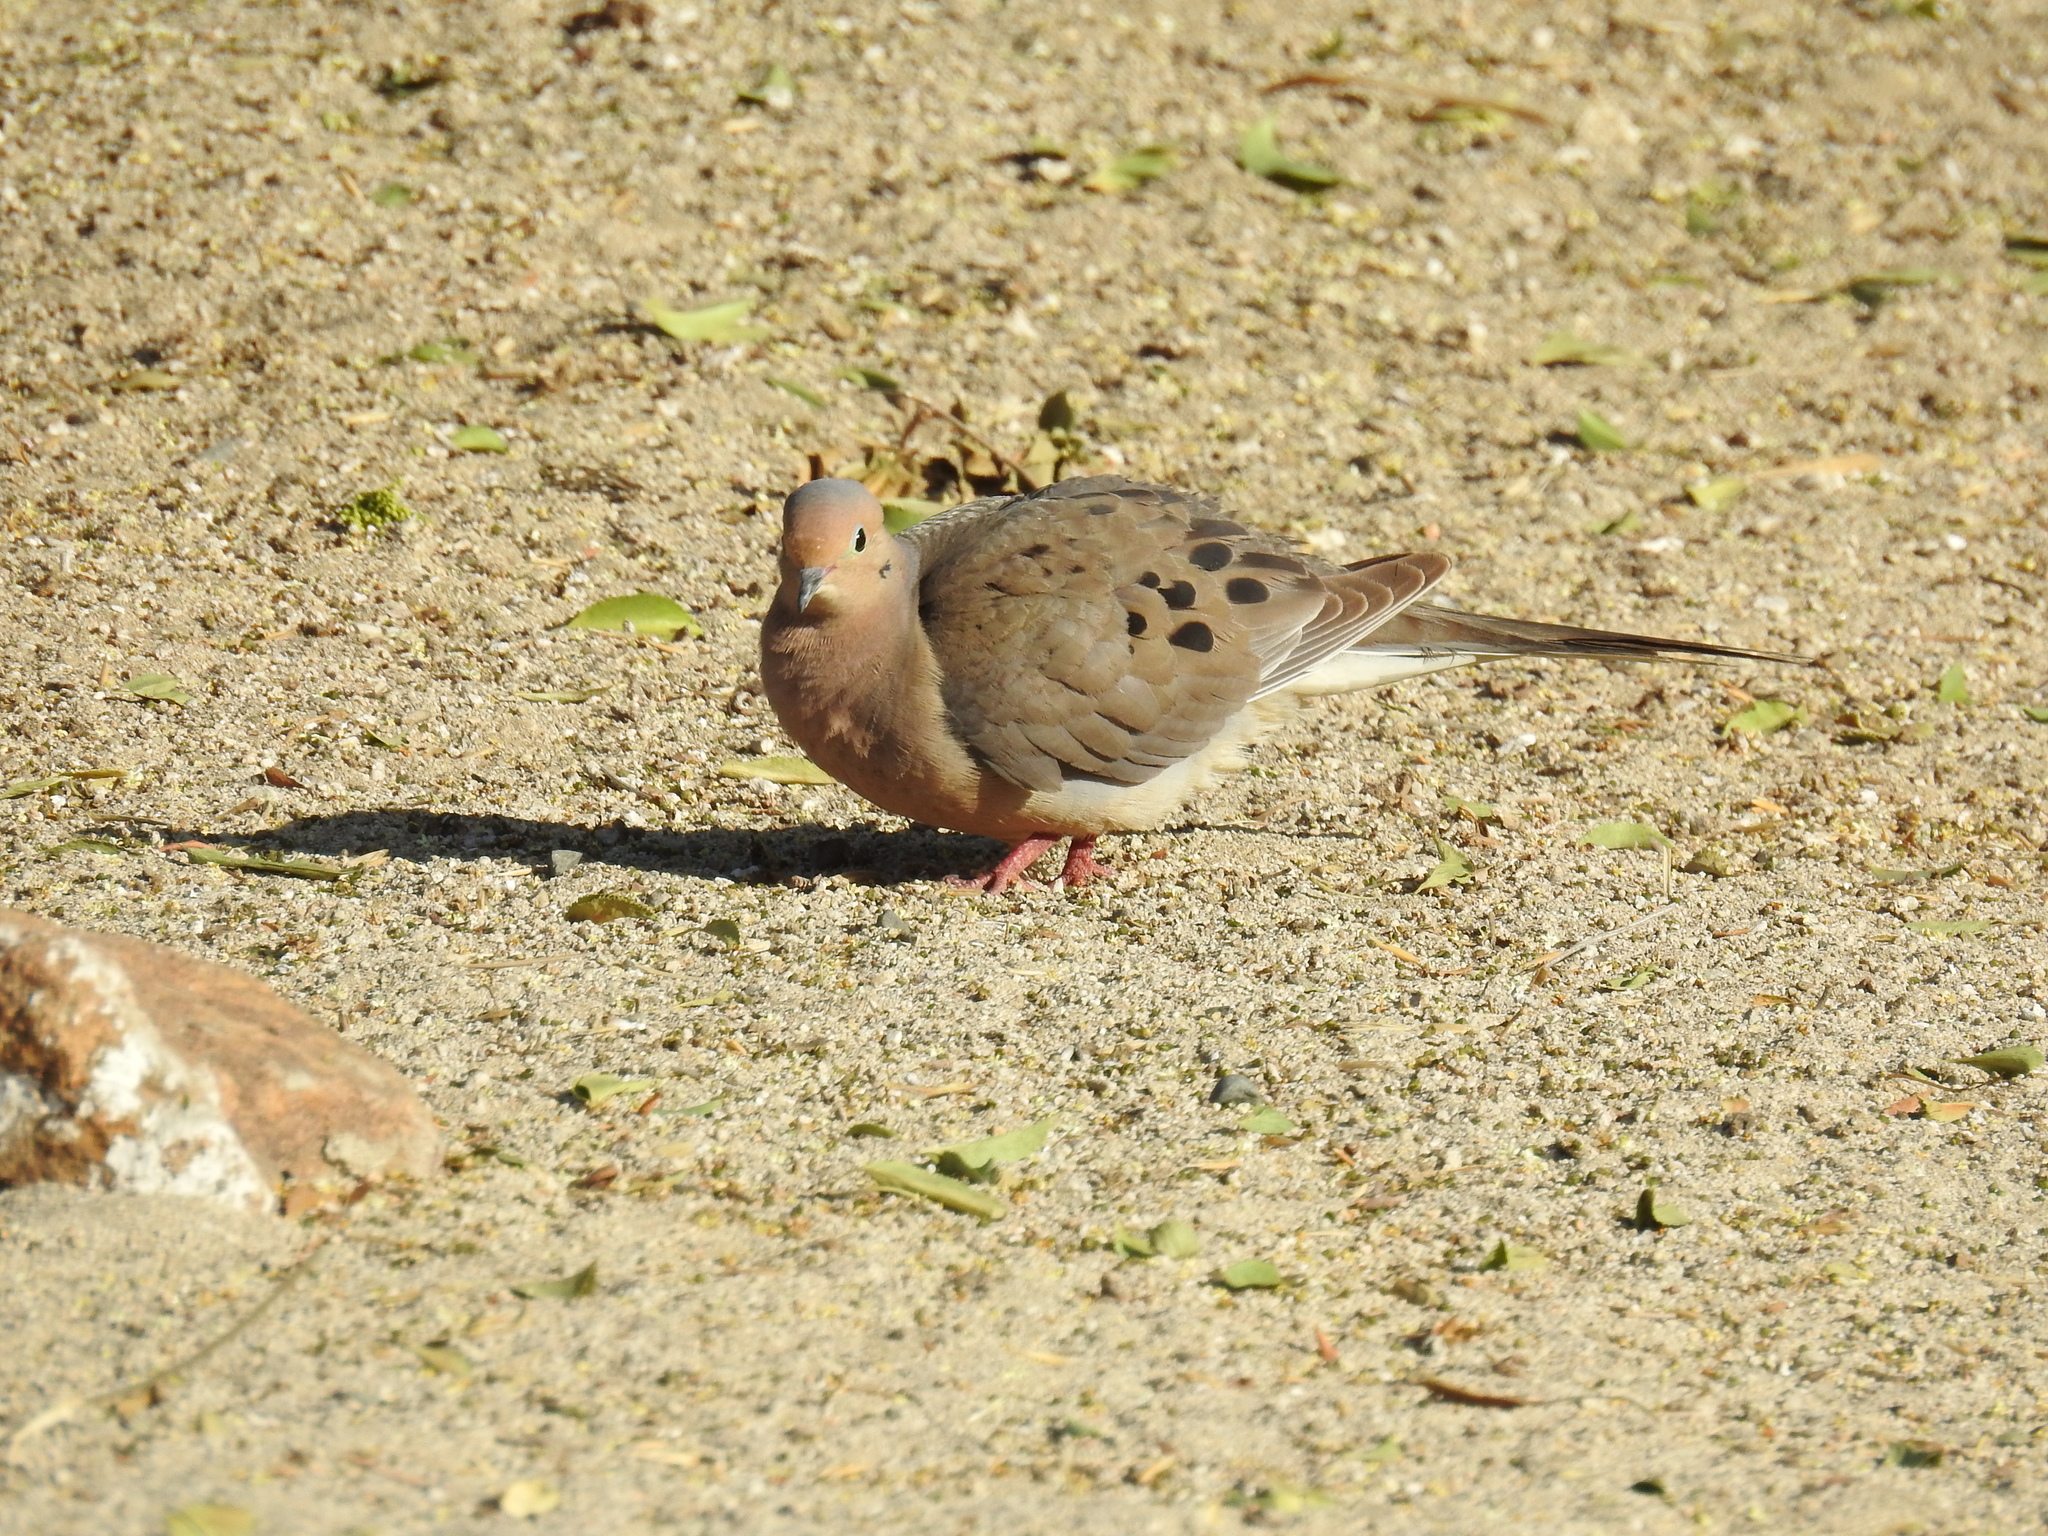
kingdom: Animalia
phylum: Chordata
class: Aves
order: Columbiformes
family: Columbidae
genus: Zenaida
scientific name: Zenaida macroura
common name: Mourning dove
